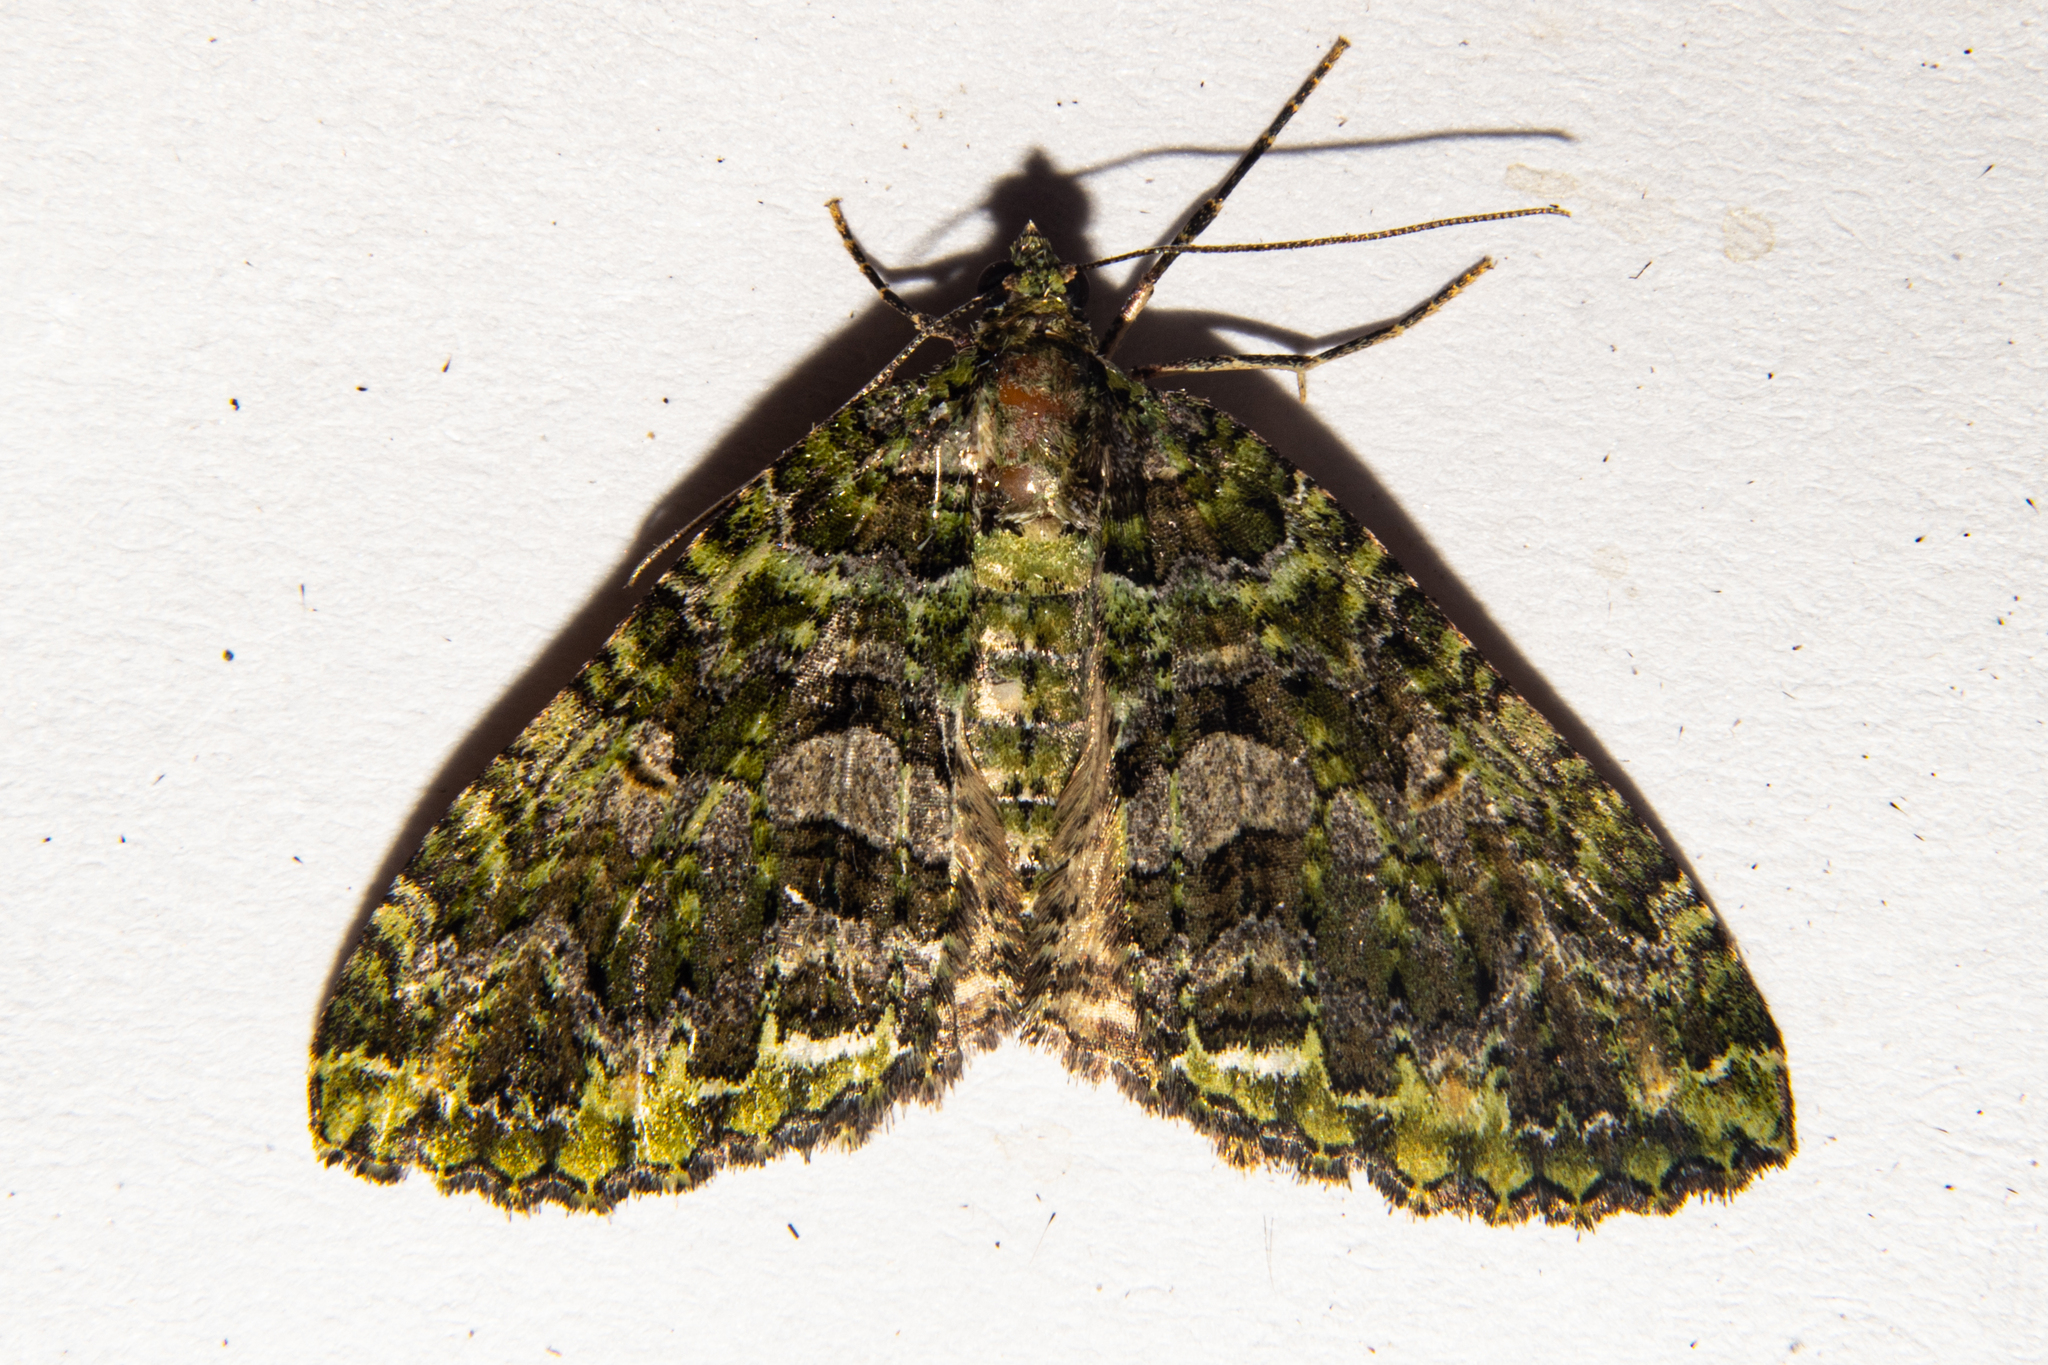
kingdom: Animalia
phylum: Arthropoda
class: Insecta
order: Lepidoptera
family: Geometridae
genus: Austrocidaria
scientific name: Austrocidaria similata
